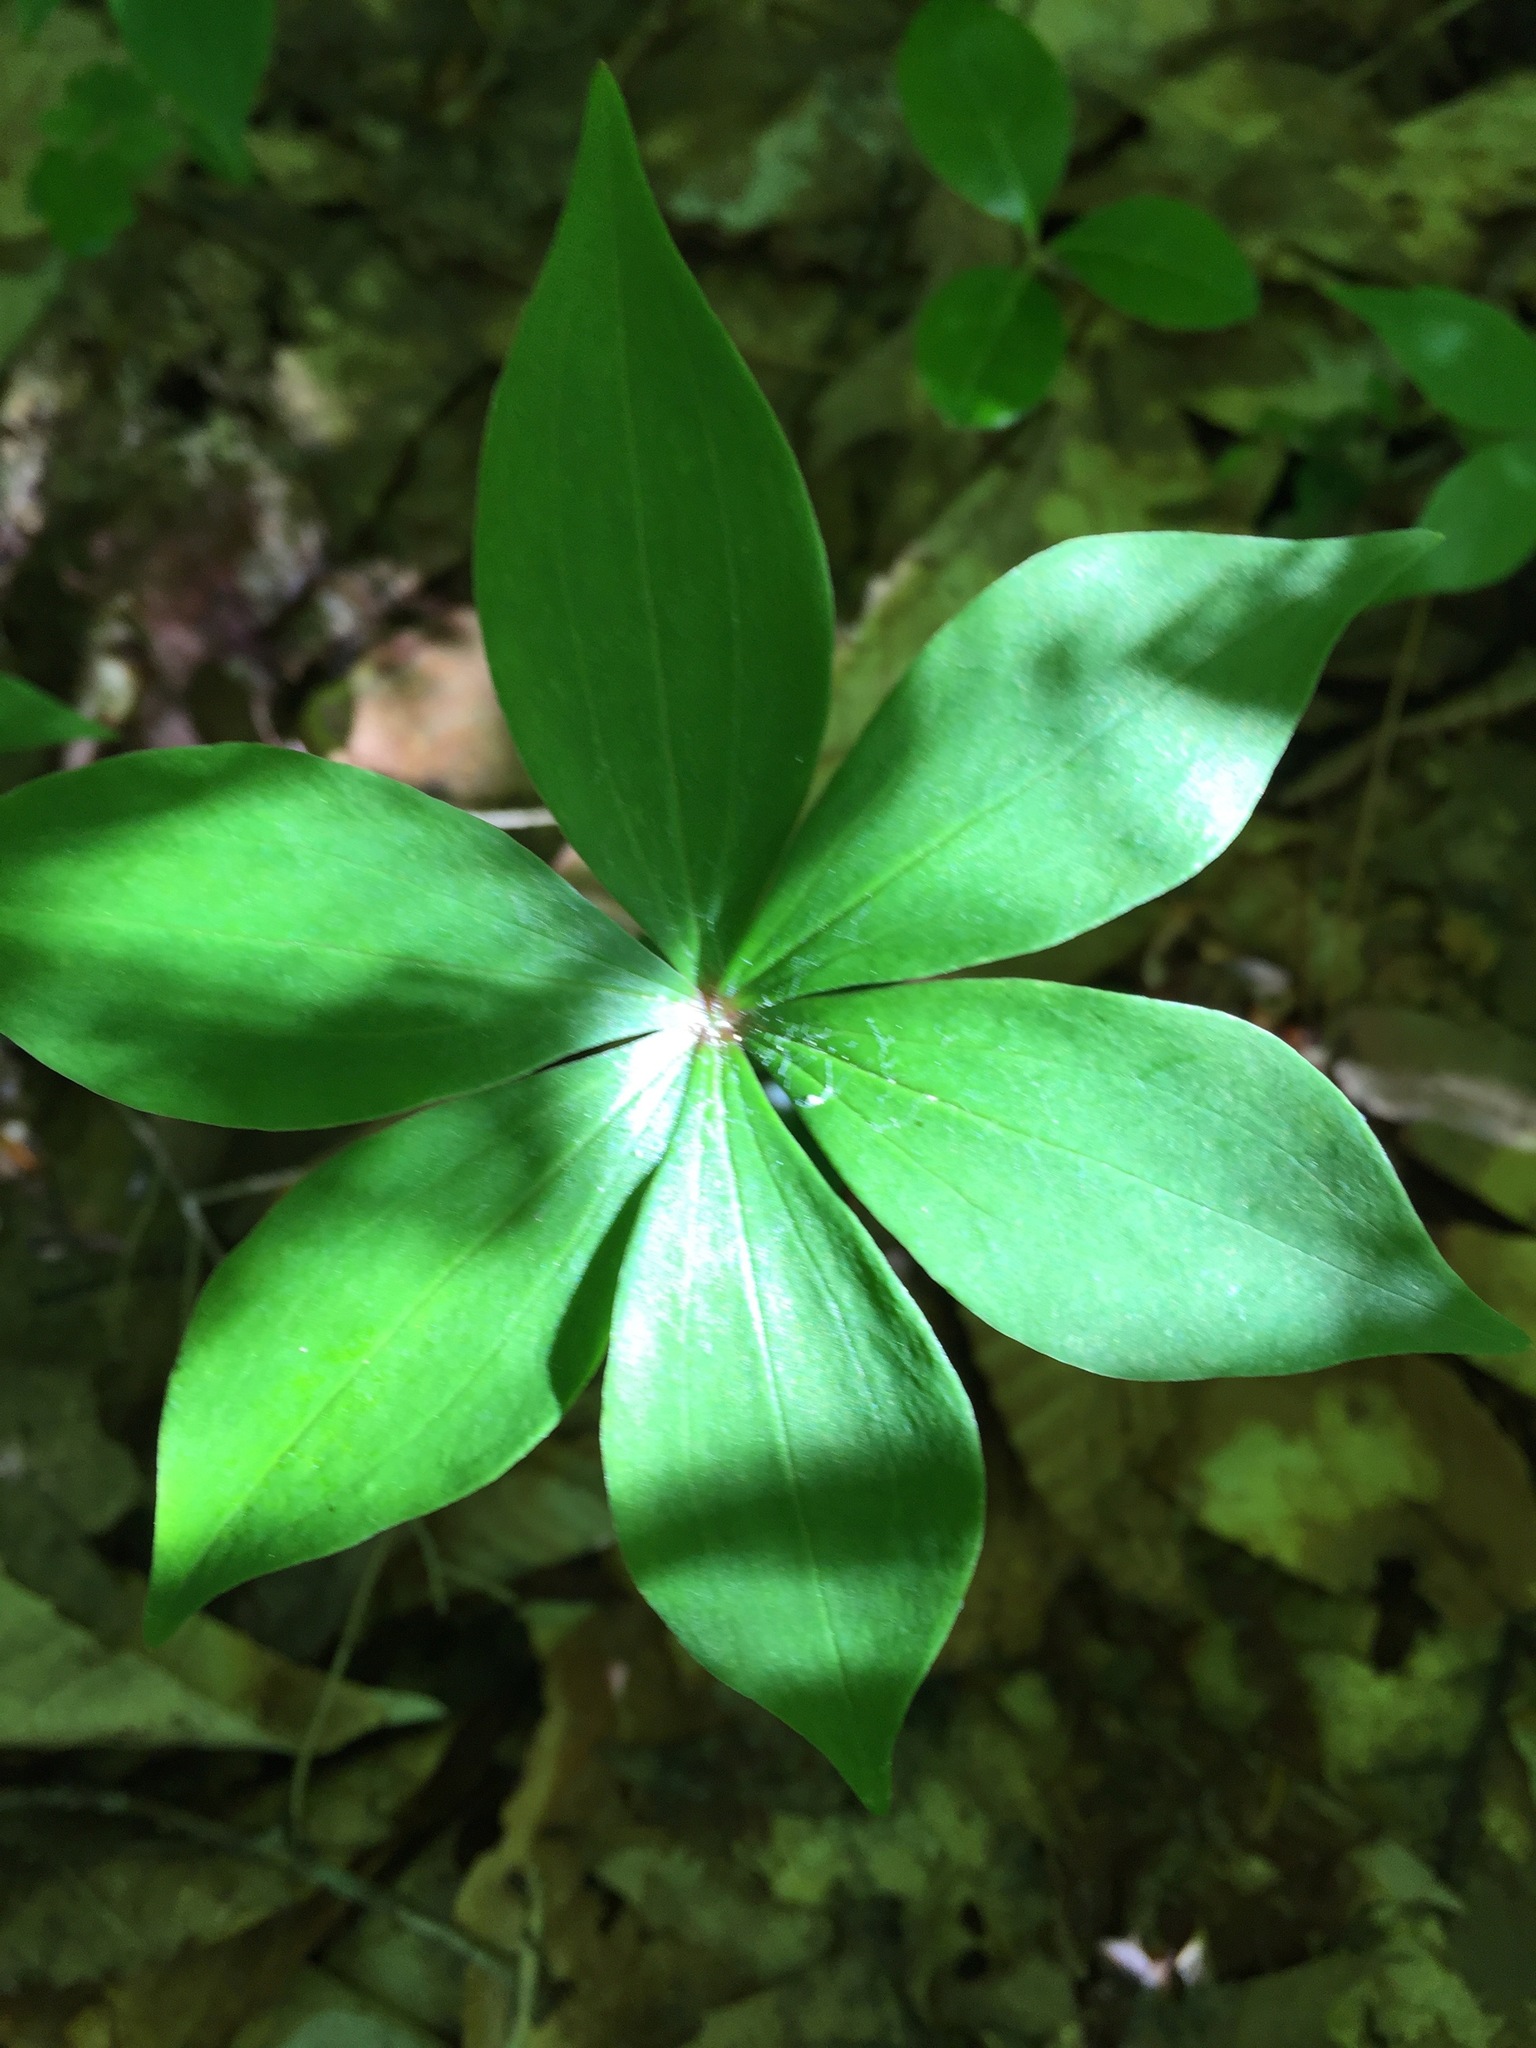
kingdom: Plantae
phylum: Tracheophyta
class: Liliopsida
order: Liliales
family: Liliaceae
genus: Medeola
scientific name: Medeola virginiana
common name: Indian cucumber-root
